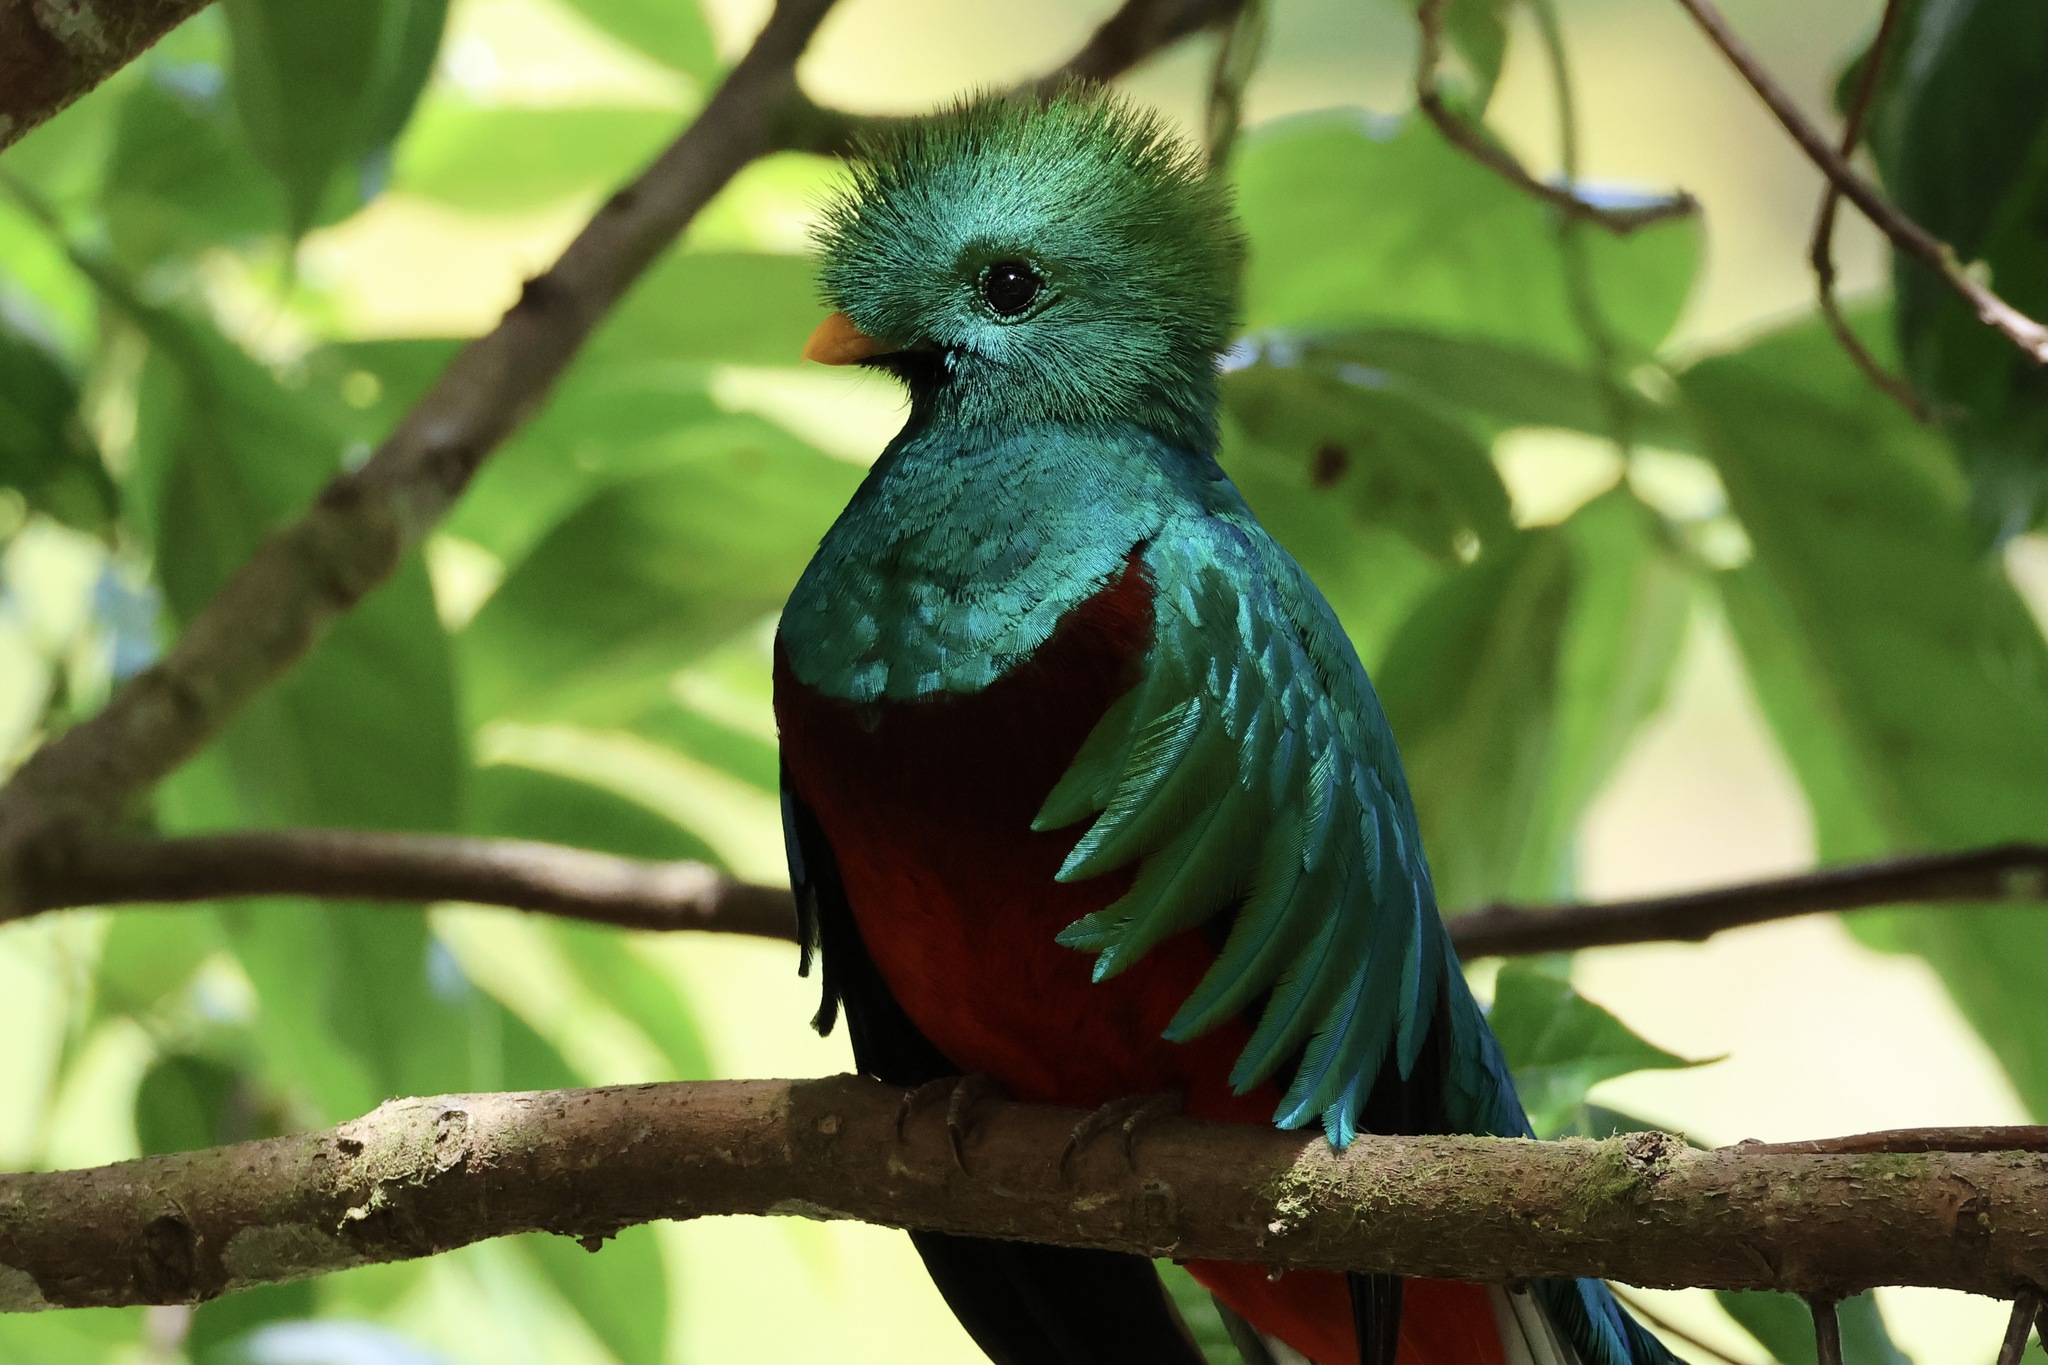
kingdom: Animalia
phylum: Chordata
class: Aves
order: Trogoniformes
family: Trogonidae
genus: Pharomachrus
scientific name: Pharomachrus mocinno
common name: Resplendent quetzal
